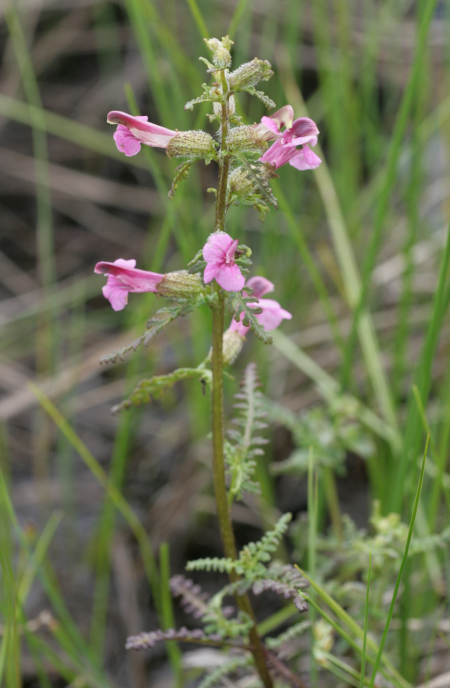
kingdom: Plantae
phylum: Tracheophyta
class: Magnoliopsida
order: Lamiales
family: Orobanchaceae
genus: Pedicularis
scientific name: Pedicularis palustris
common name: Marsh lousewort
